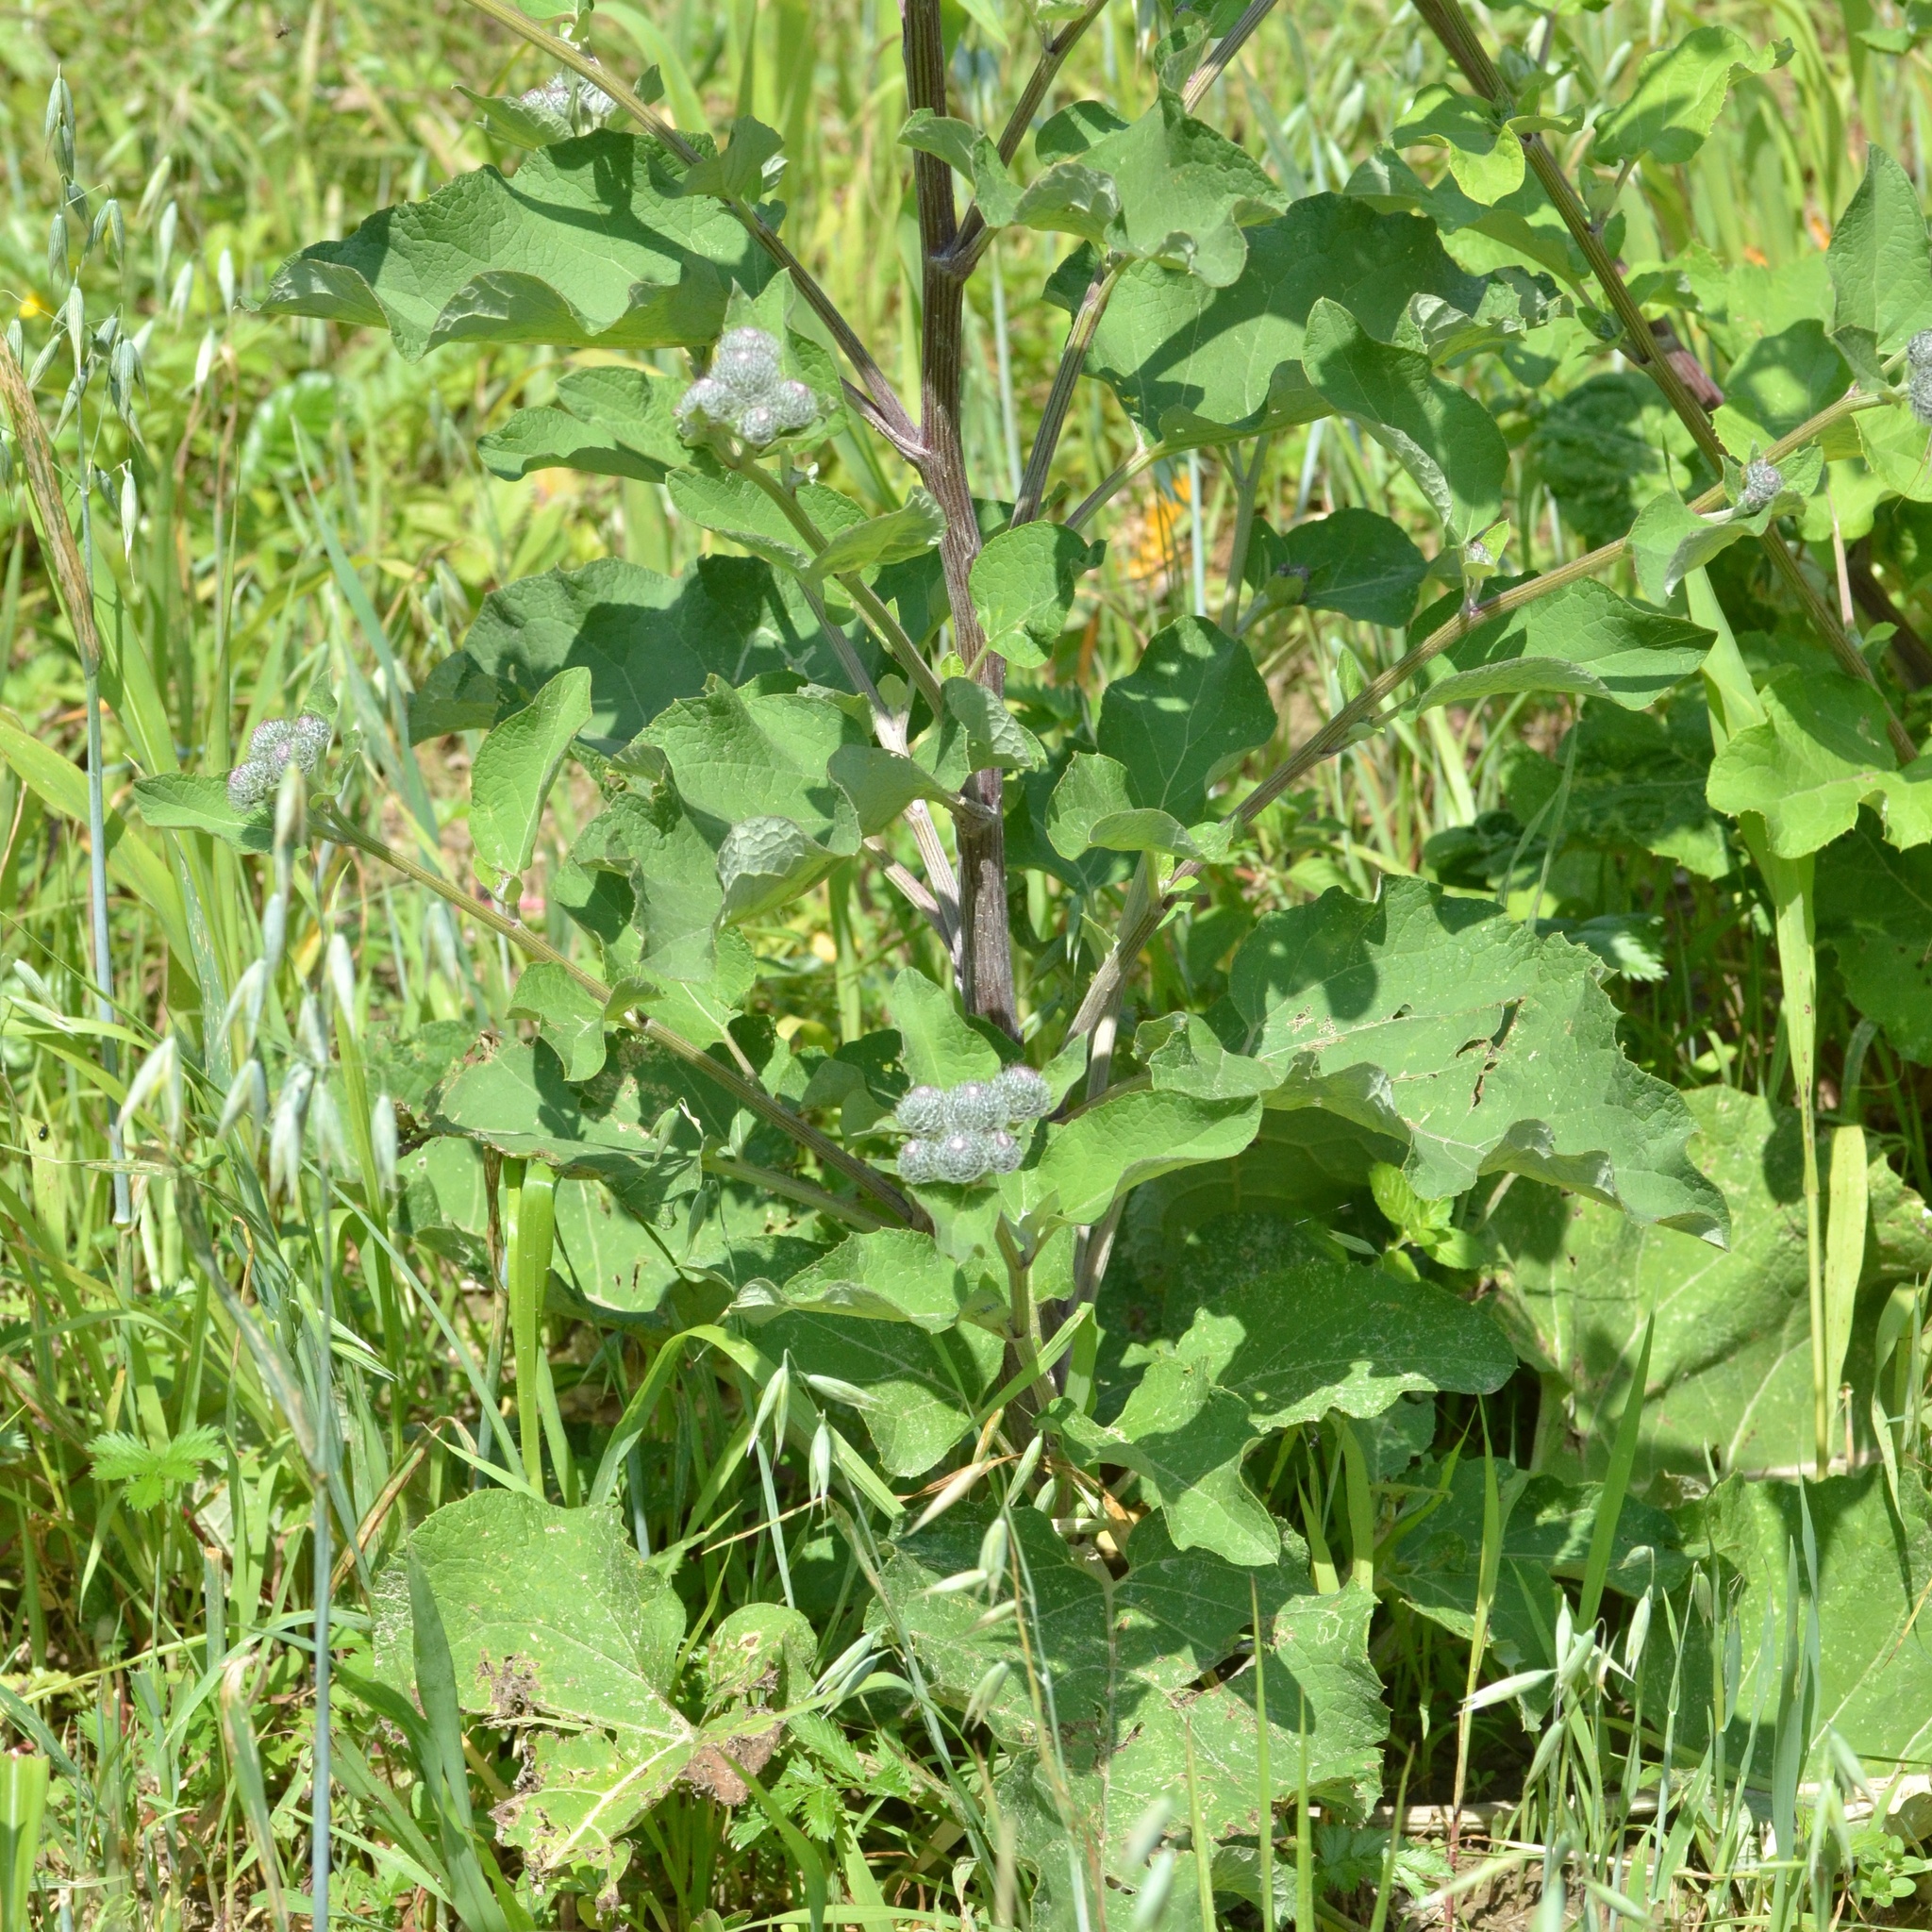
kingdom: Plantae
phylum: Tracheophyta
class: Magnoliopsida
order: Asterales
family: Asteraceae
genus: Arctium
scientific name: Arctium tomentosum
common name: Woolly burdock
